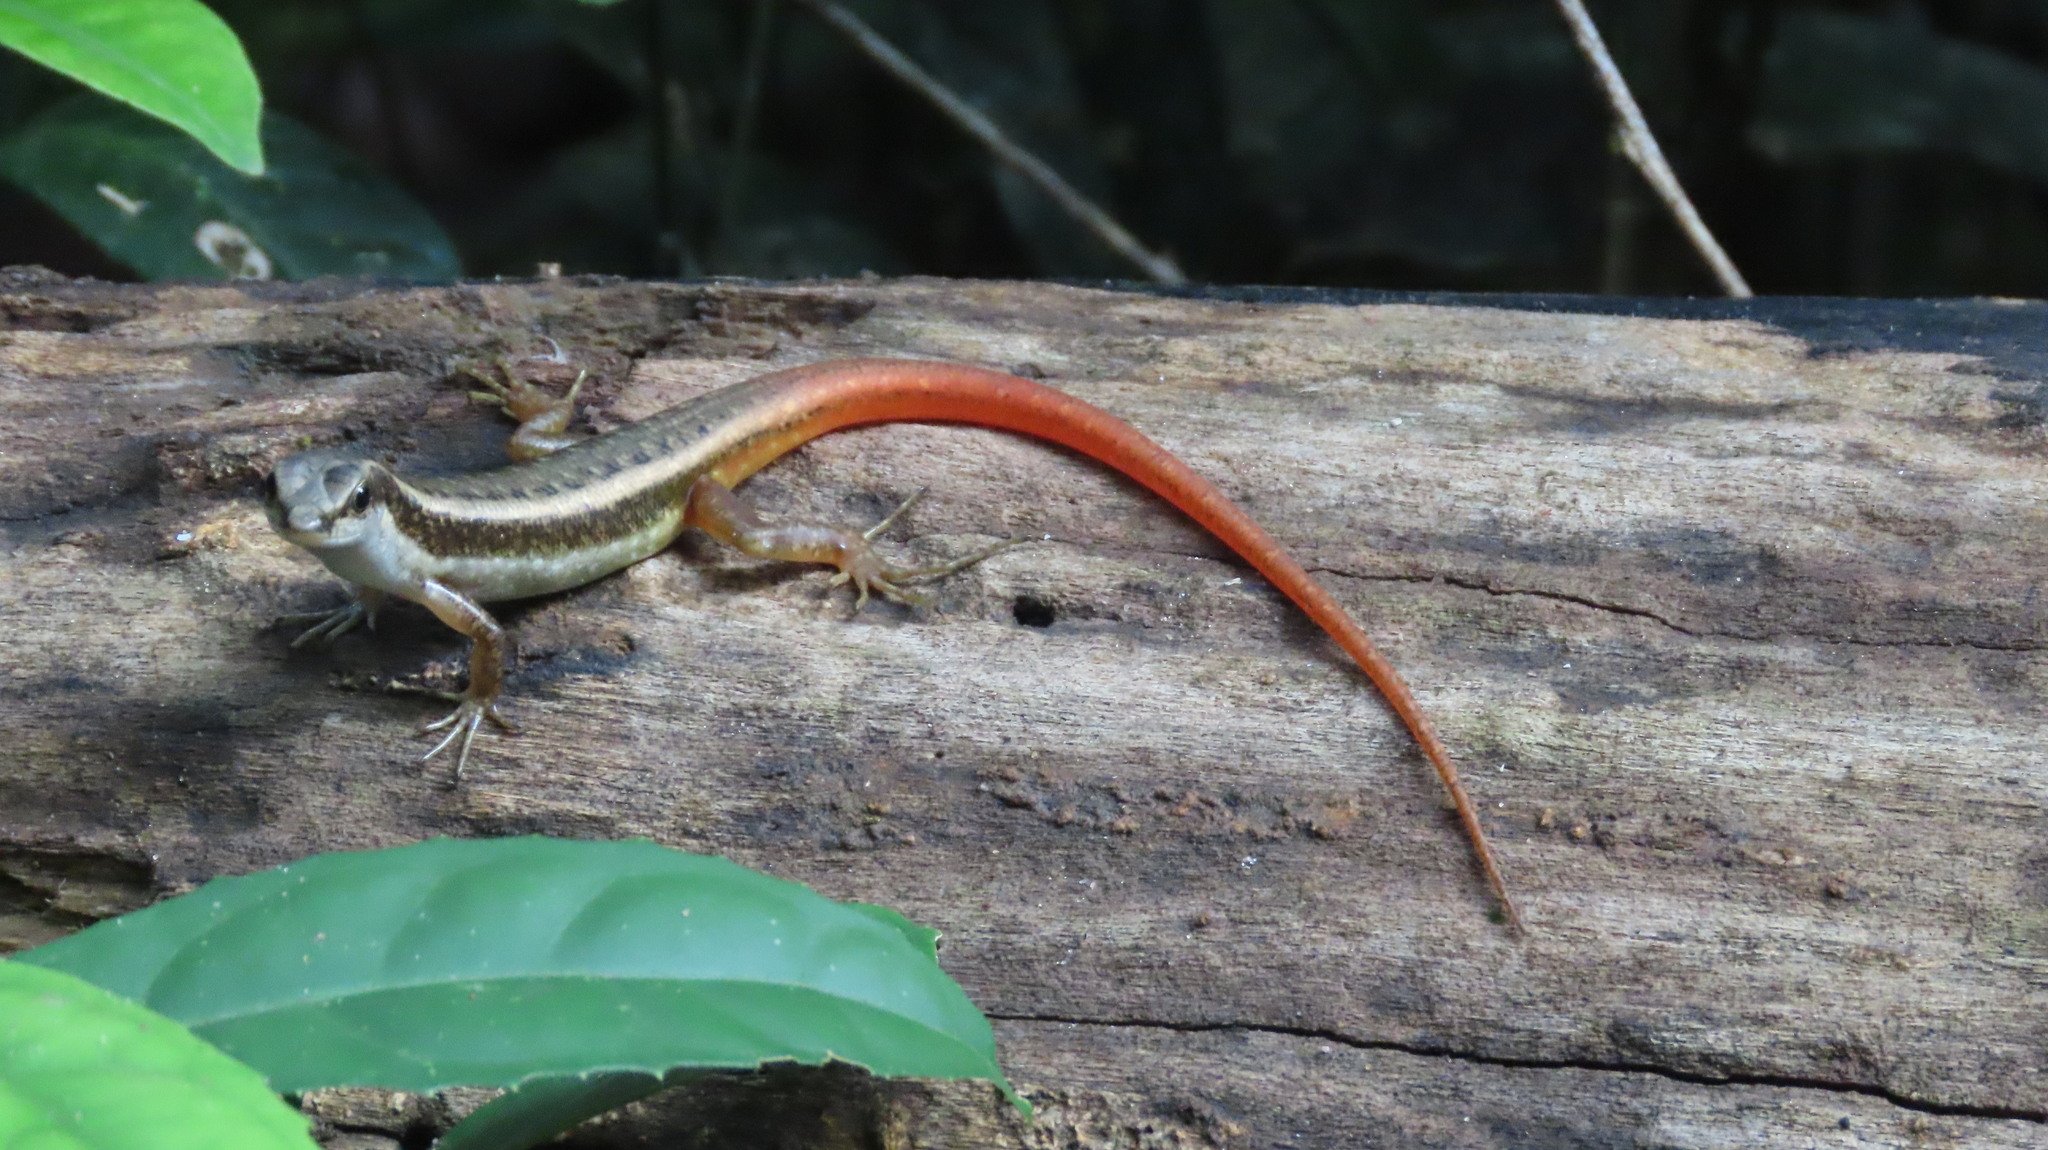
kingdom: Animalia
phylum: Chordata
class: Squamata
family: Scincidae
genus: Sphenomorphus
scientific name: Sphenomorphus dussumieri
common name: Dussumier's forest skink
